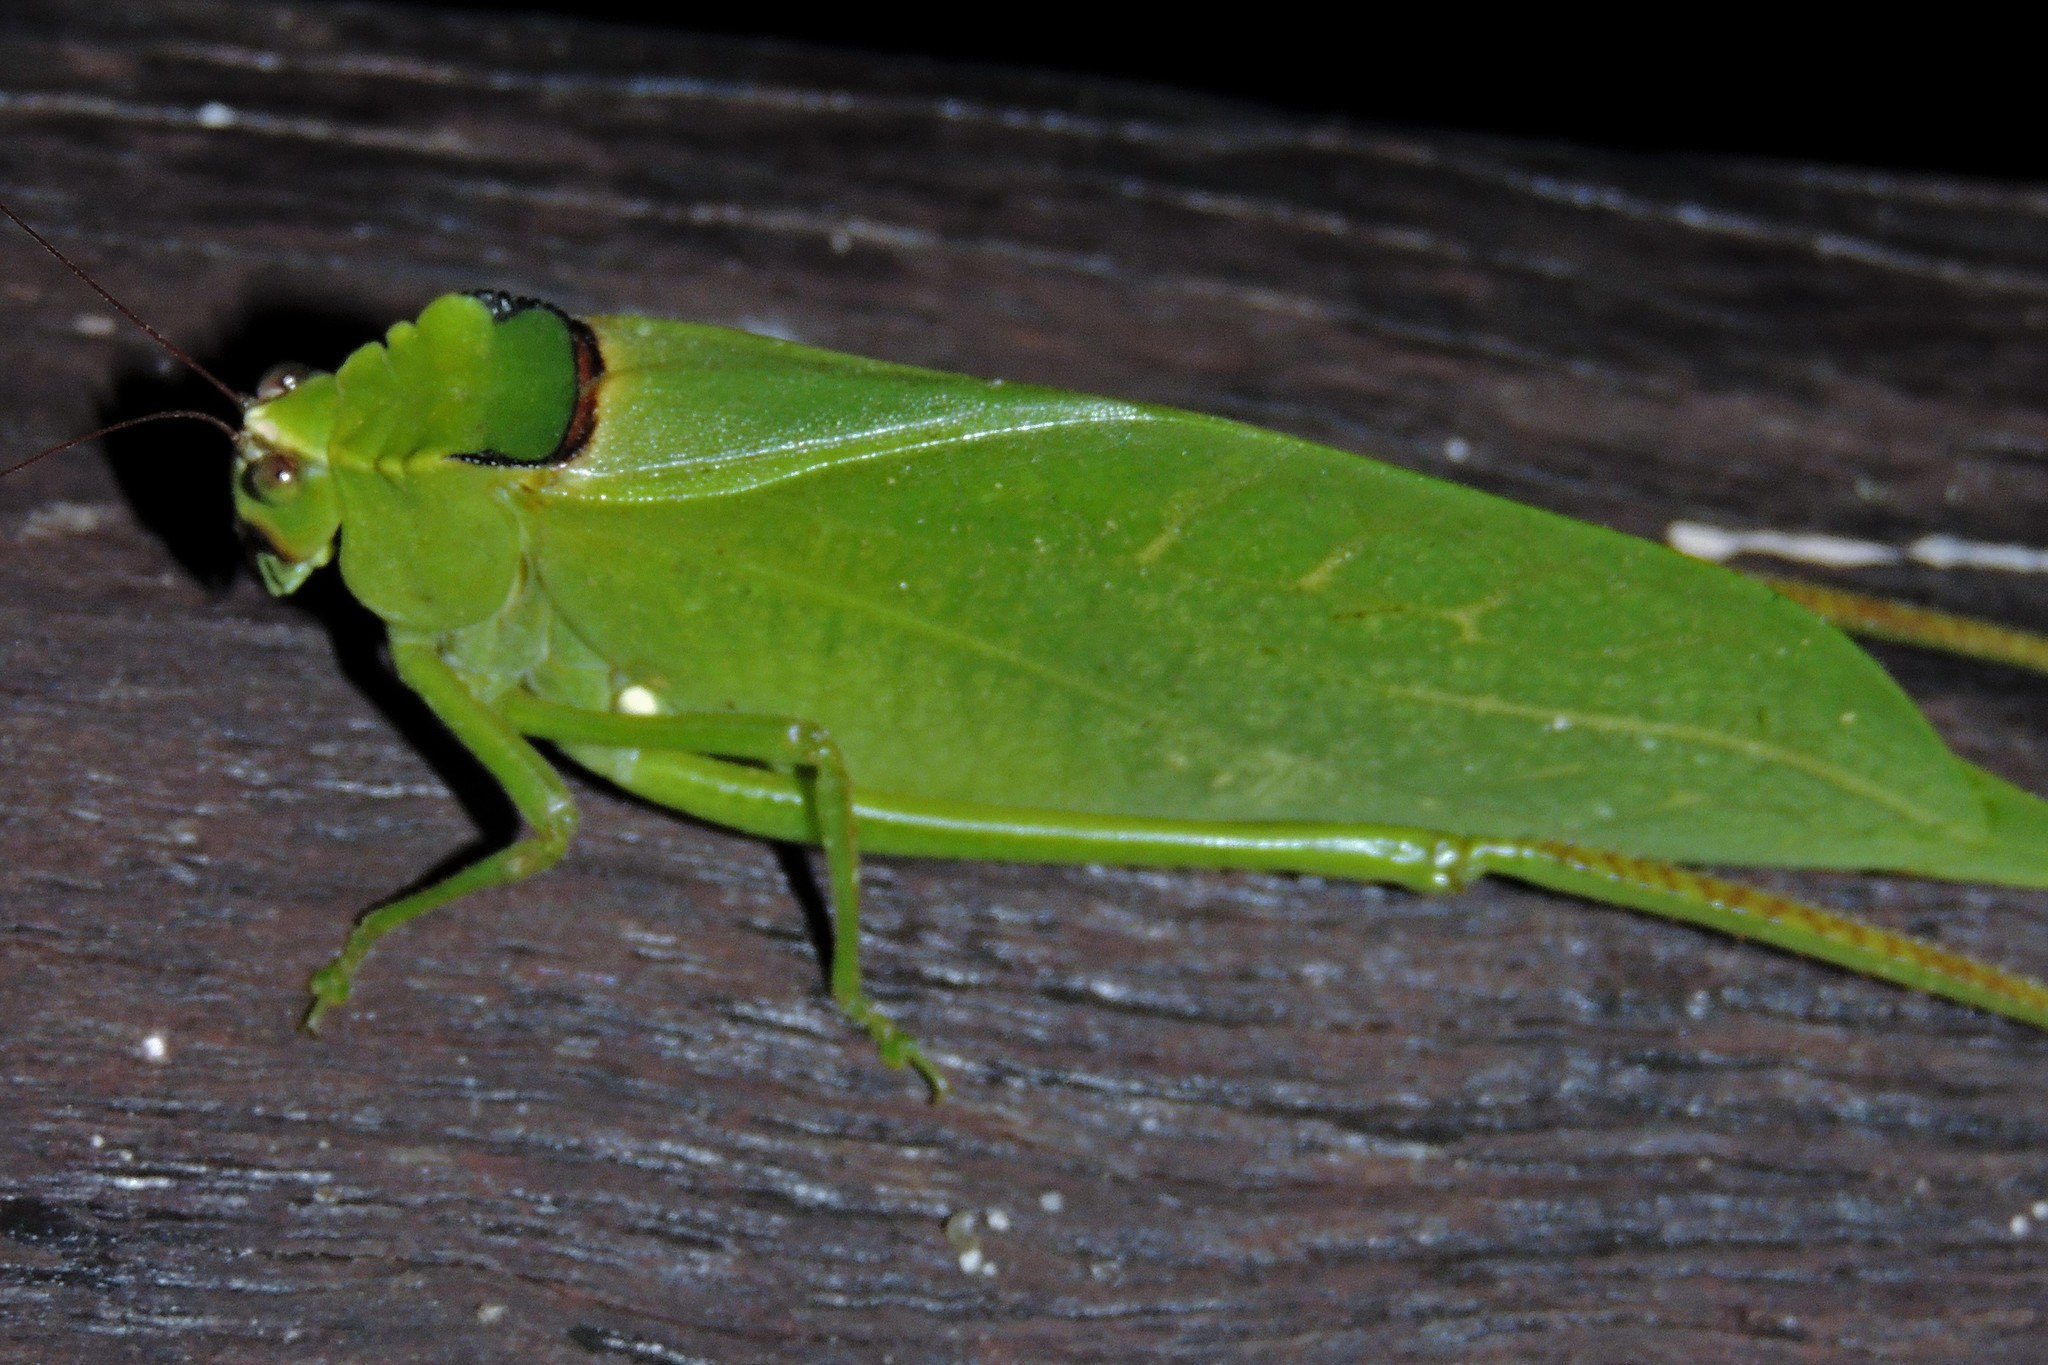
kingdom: Animalia
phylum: Arthropoda
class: Insecta
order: Orthoptera
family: Tettigoniidae
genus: Stilpnochlora
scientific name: Stilpnochlora incisa
